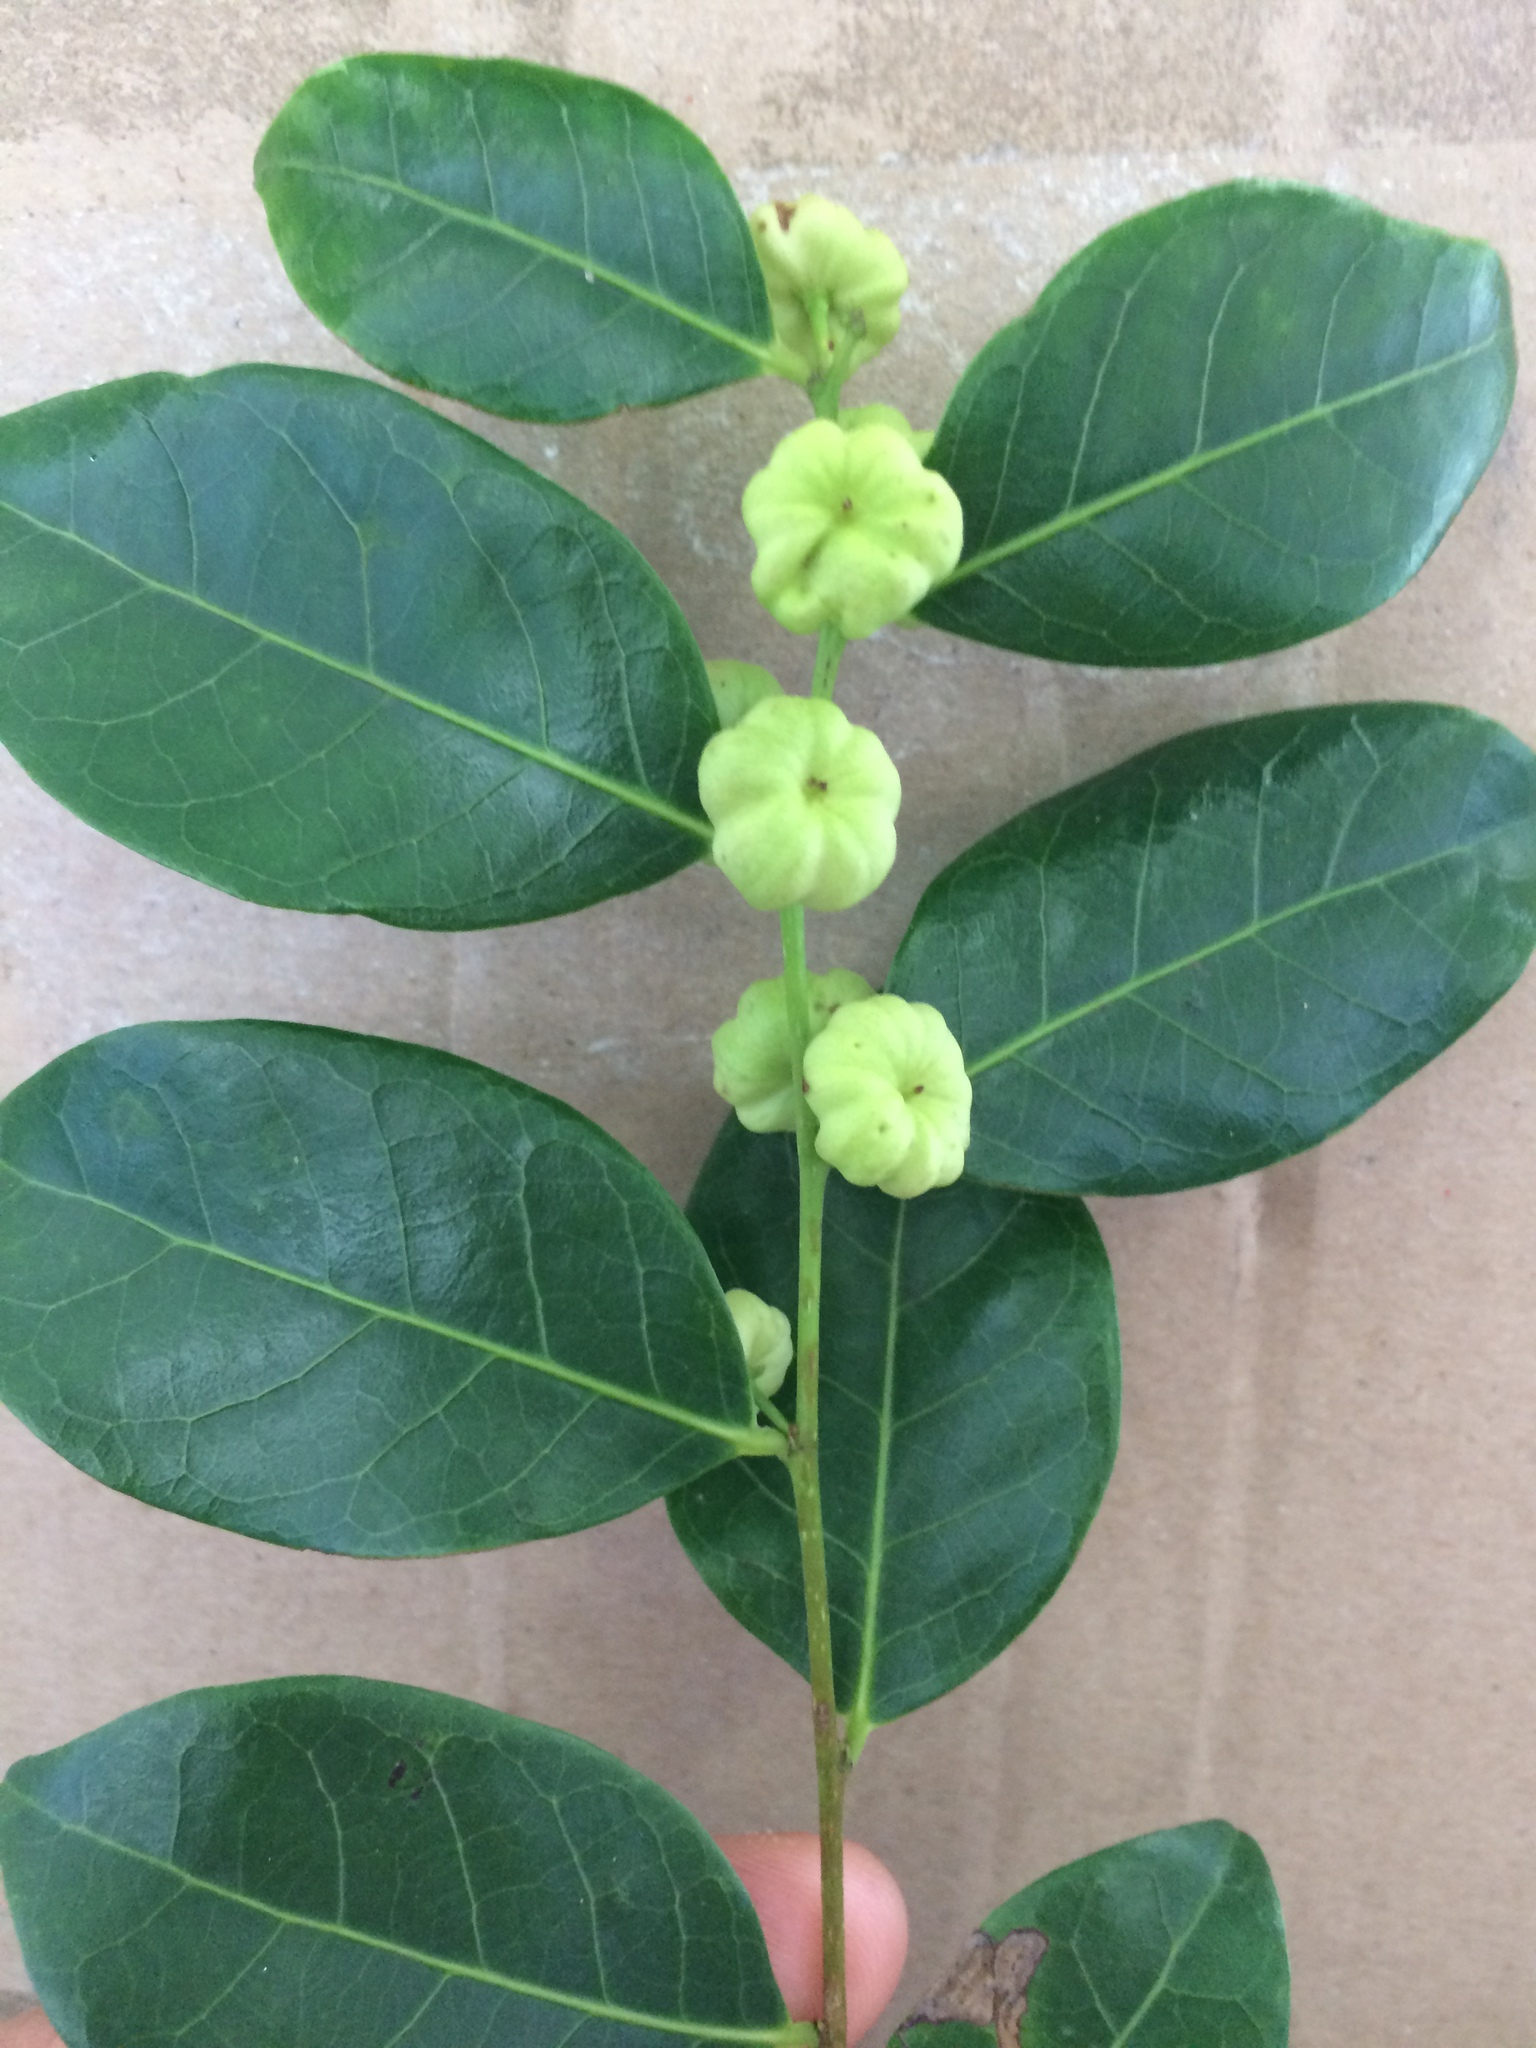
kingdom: Plantae
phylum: Tracheophyta
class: Magnoliopsida
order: Malpighiales
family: Phyllanthaceae
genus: Glochidion
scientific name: Glochidion ferdinandi
